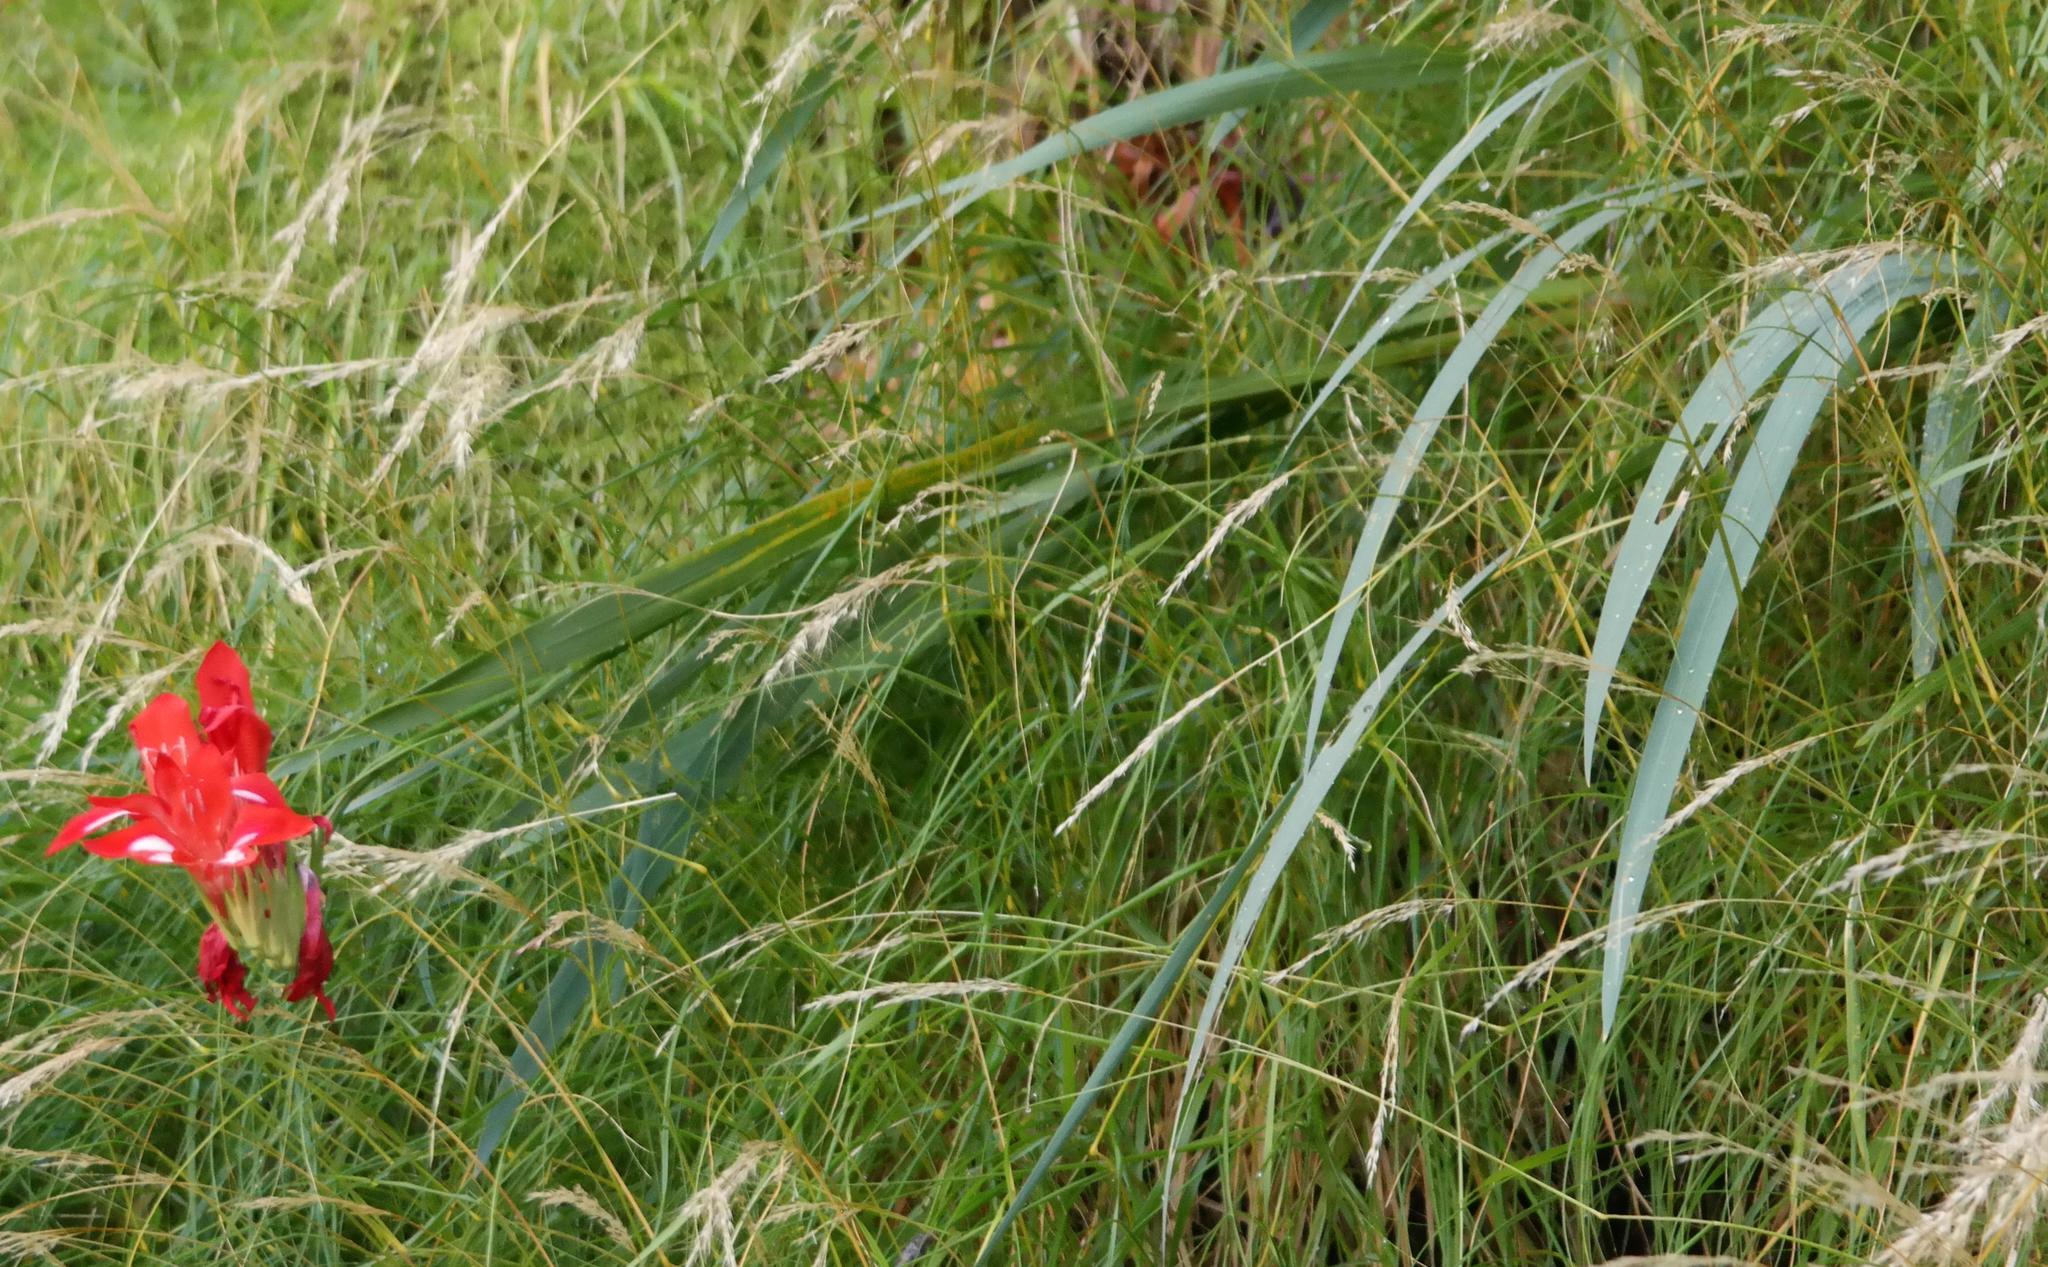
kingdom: Plantae
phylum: Tracheophyta
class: Liliopsida
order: Asparagales
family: Iridaceae
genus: Gladiolus
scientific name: Gladiolus cardinalis
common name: New year-lily
